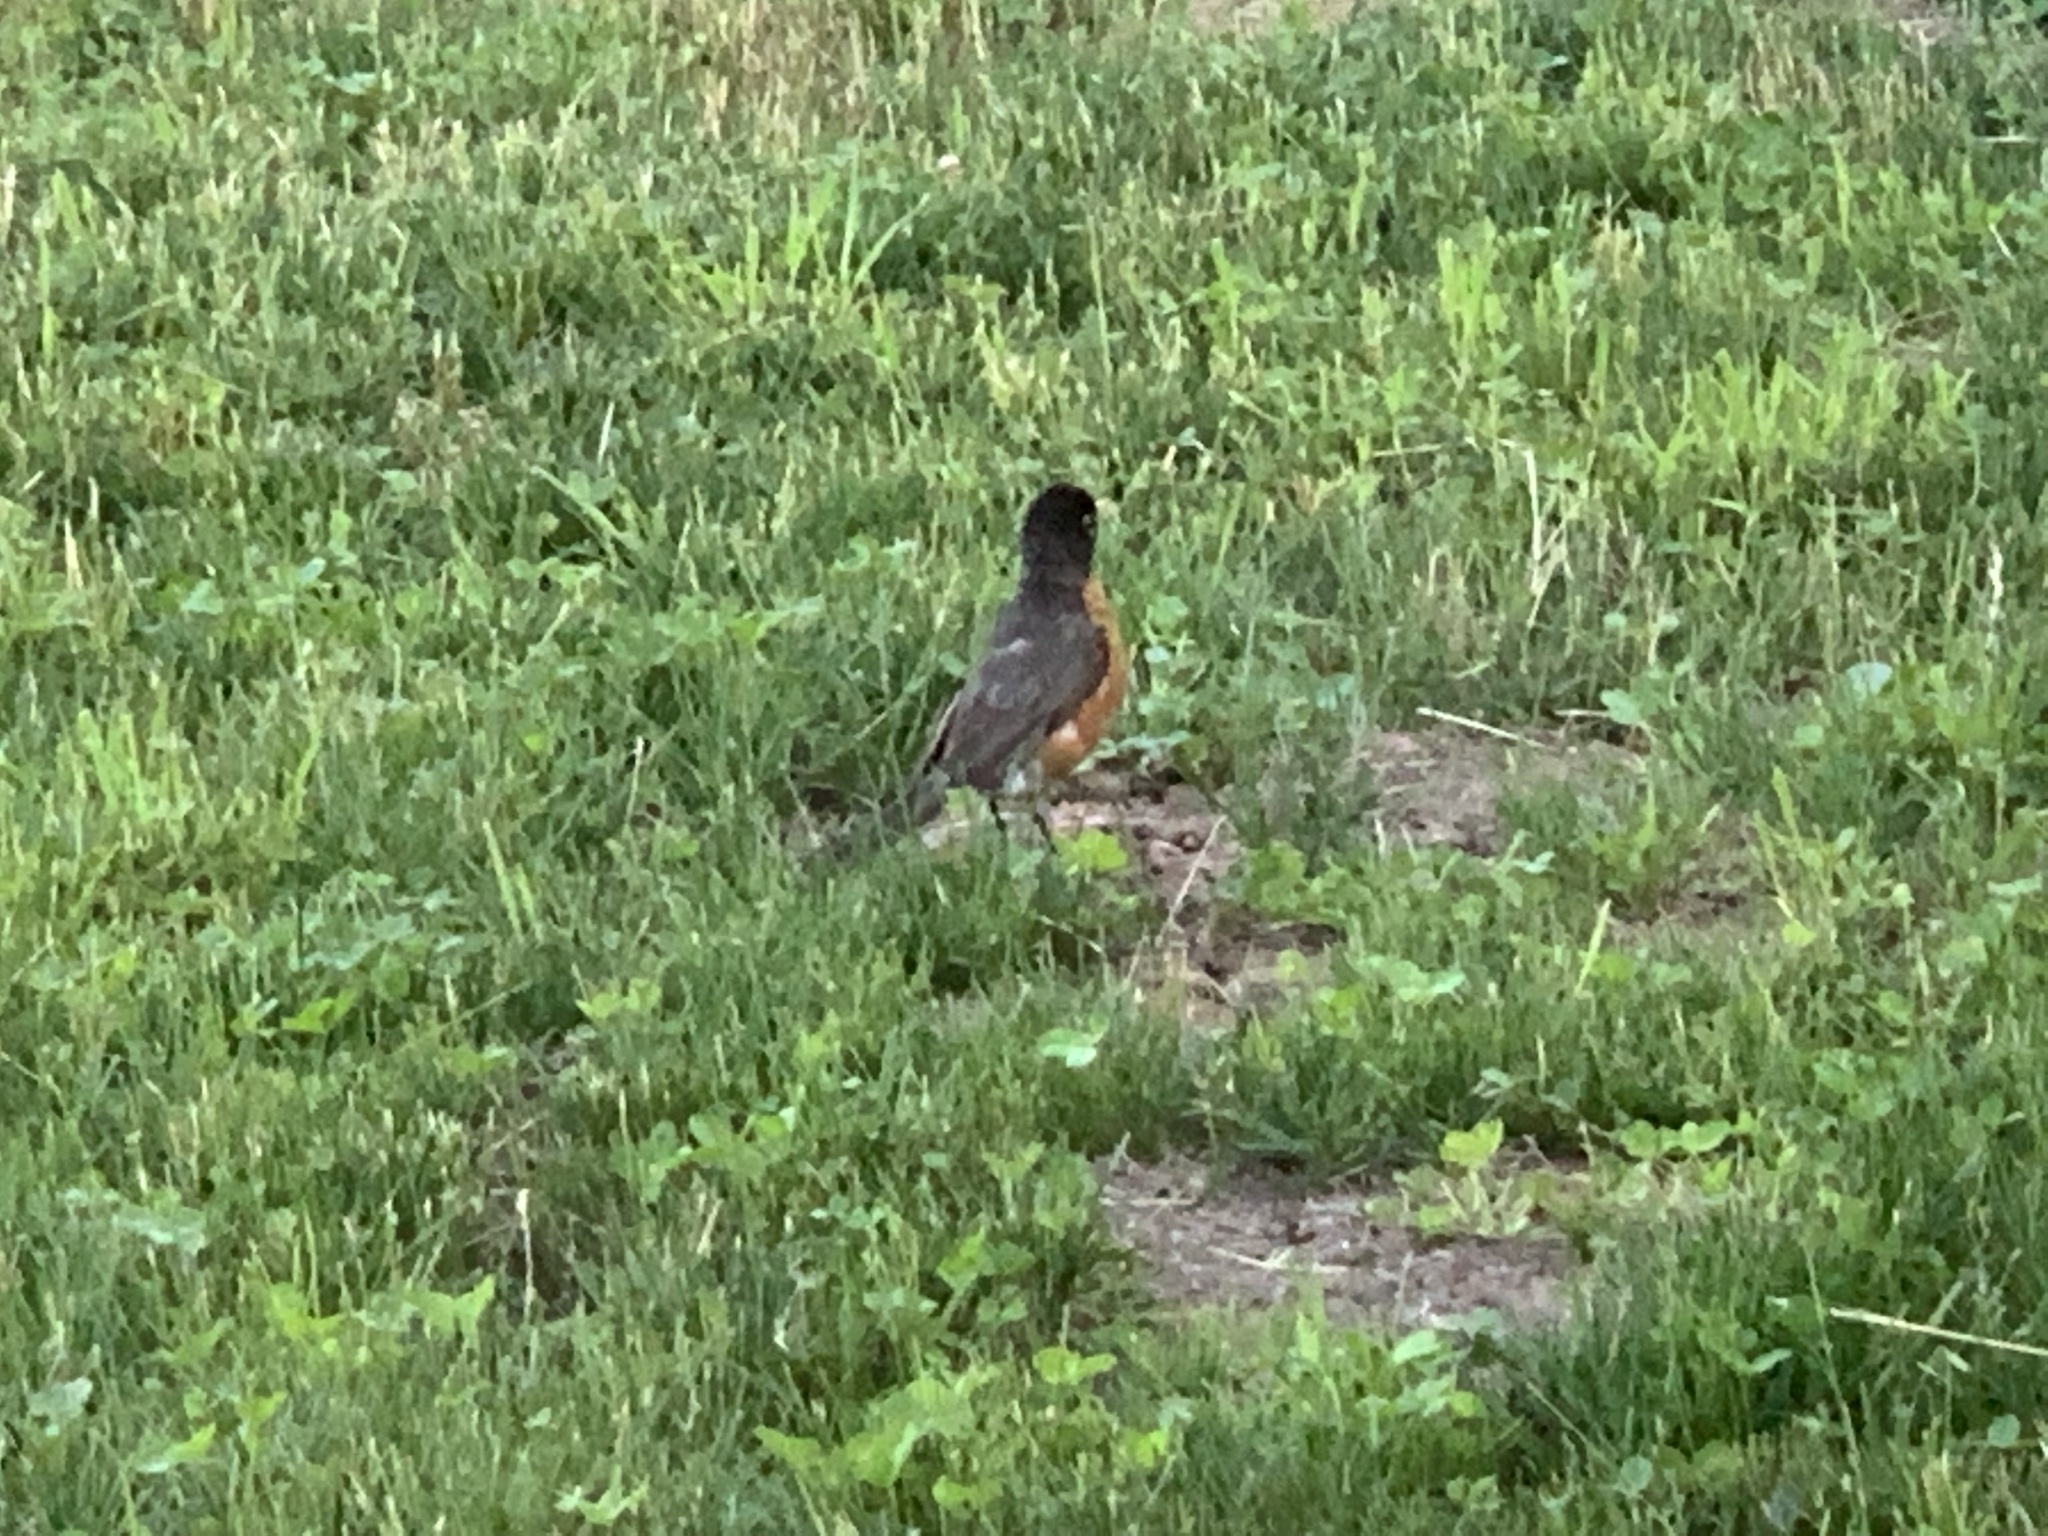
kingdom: Animalia
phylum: Chordata
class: Aves
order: Passeriformes
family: Turdidae
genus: Turdus
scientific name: Turdus migratorius
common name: American robin
